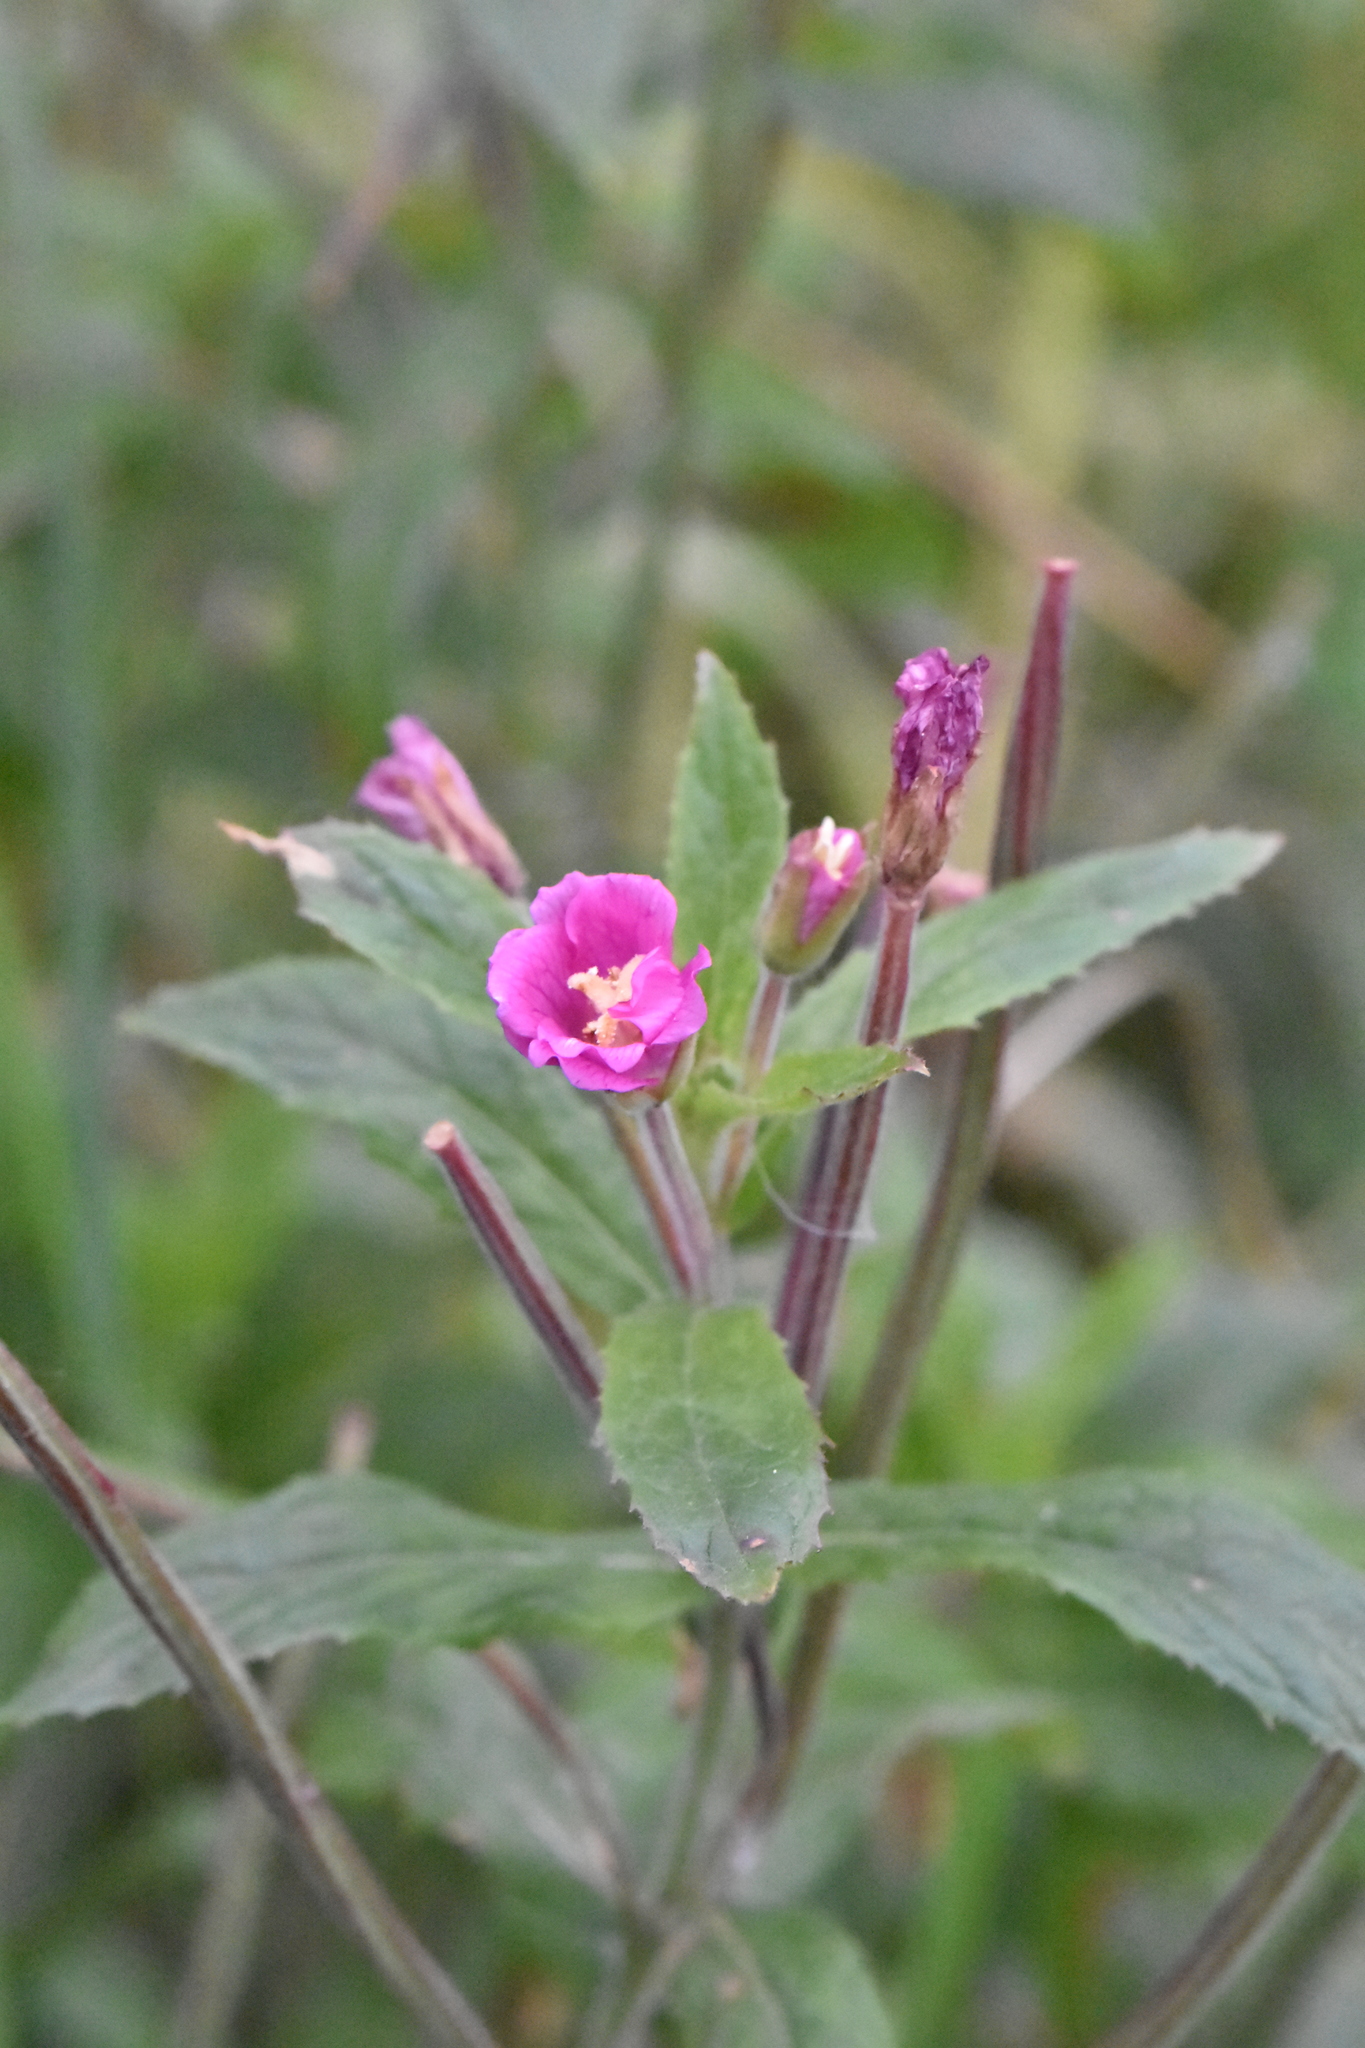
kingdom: Plantae
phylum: Tracheophyta
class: Magnoliopsida
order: Myrtales
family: Onagraceae
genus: Epilobium
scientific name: Epilobium hirsutum
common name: Great willowherb
